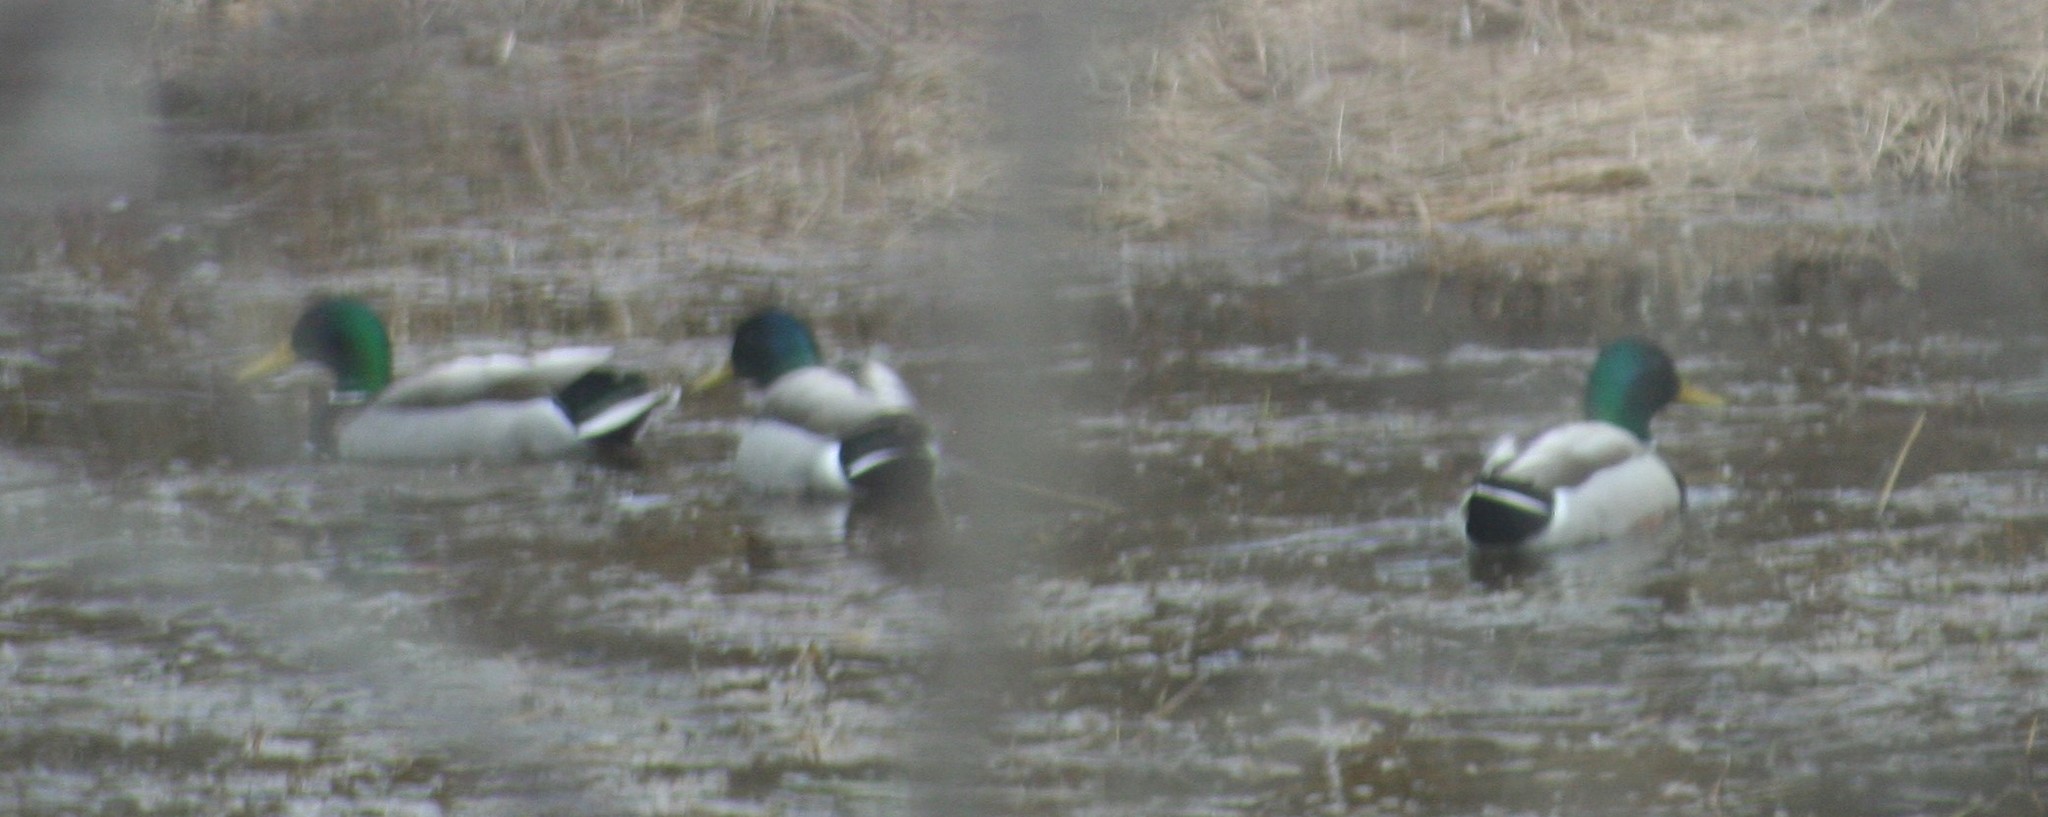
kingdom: Animalia
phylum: Chordata
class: Aves
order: Anseriformes
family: Anatidae
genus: Anas
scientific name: Anas platyrhynchos
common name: Mallard
